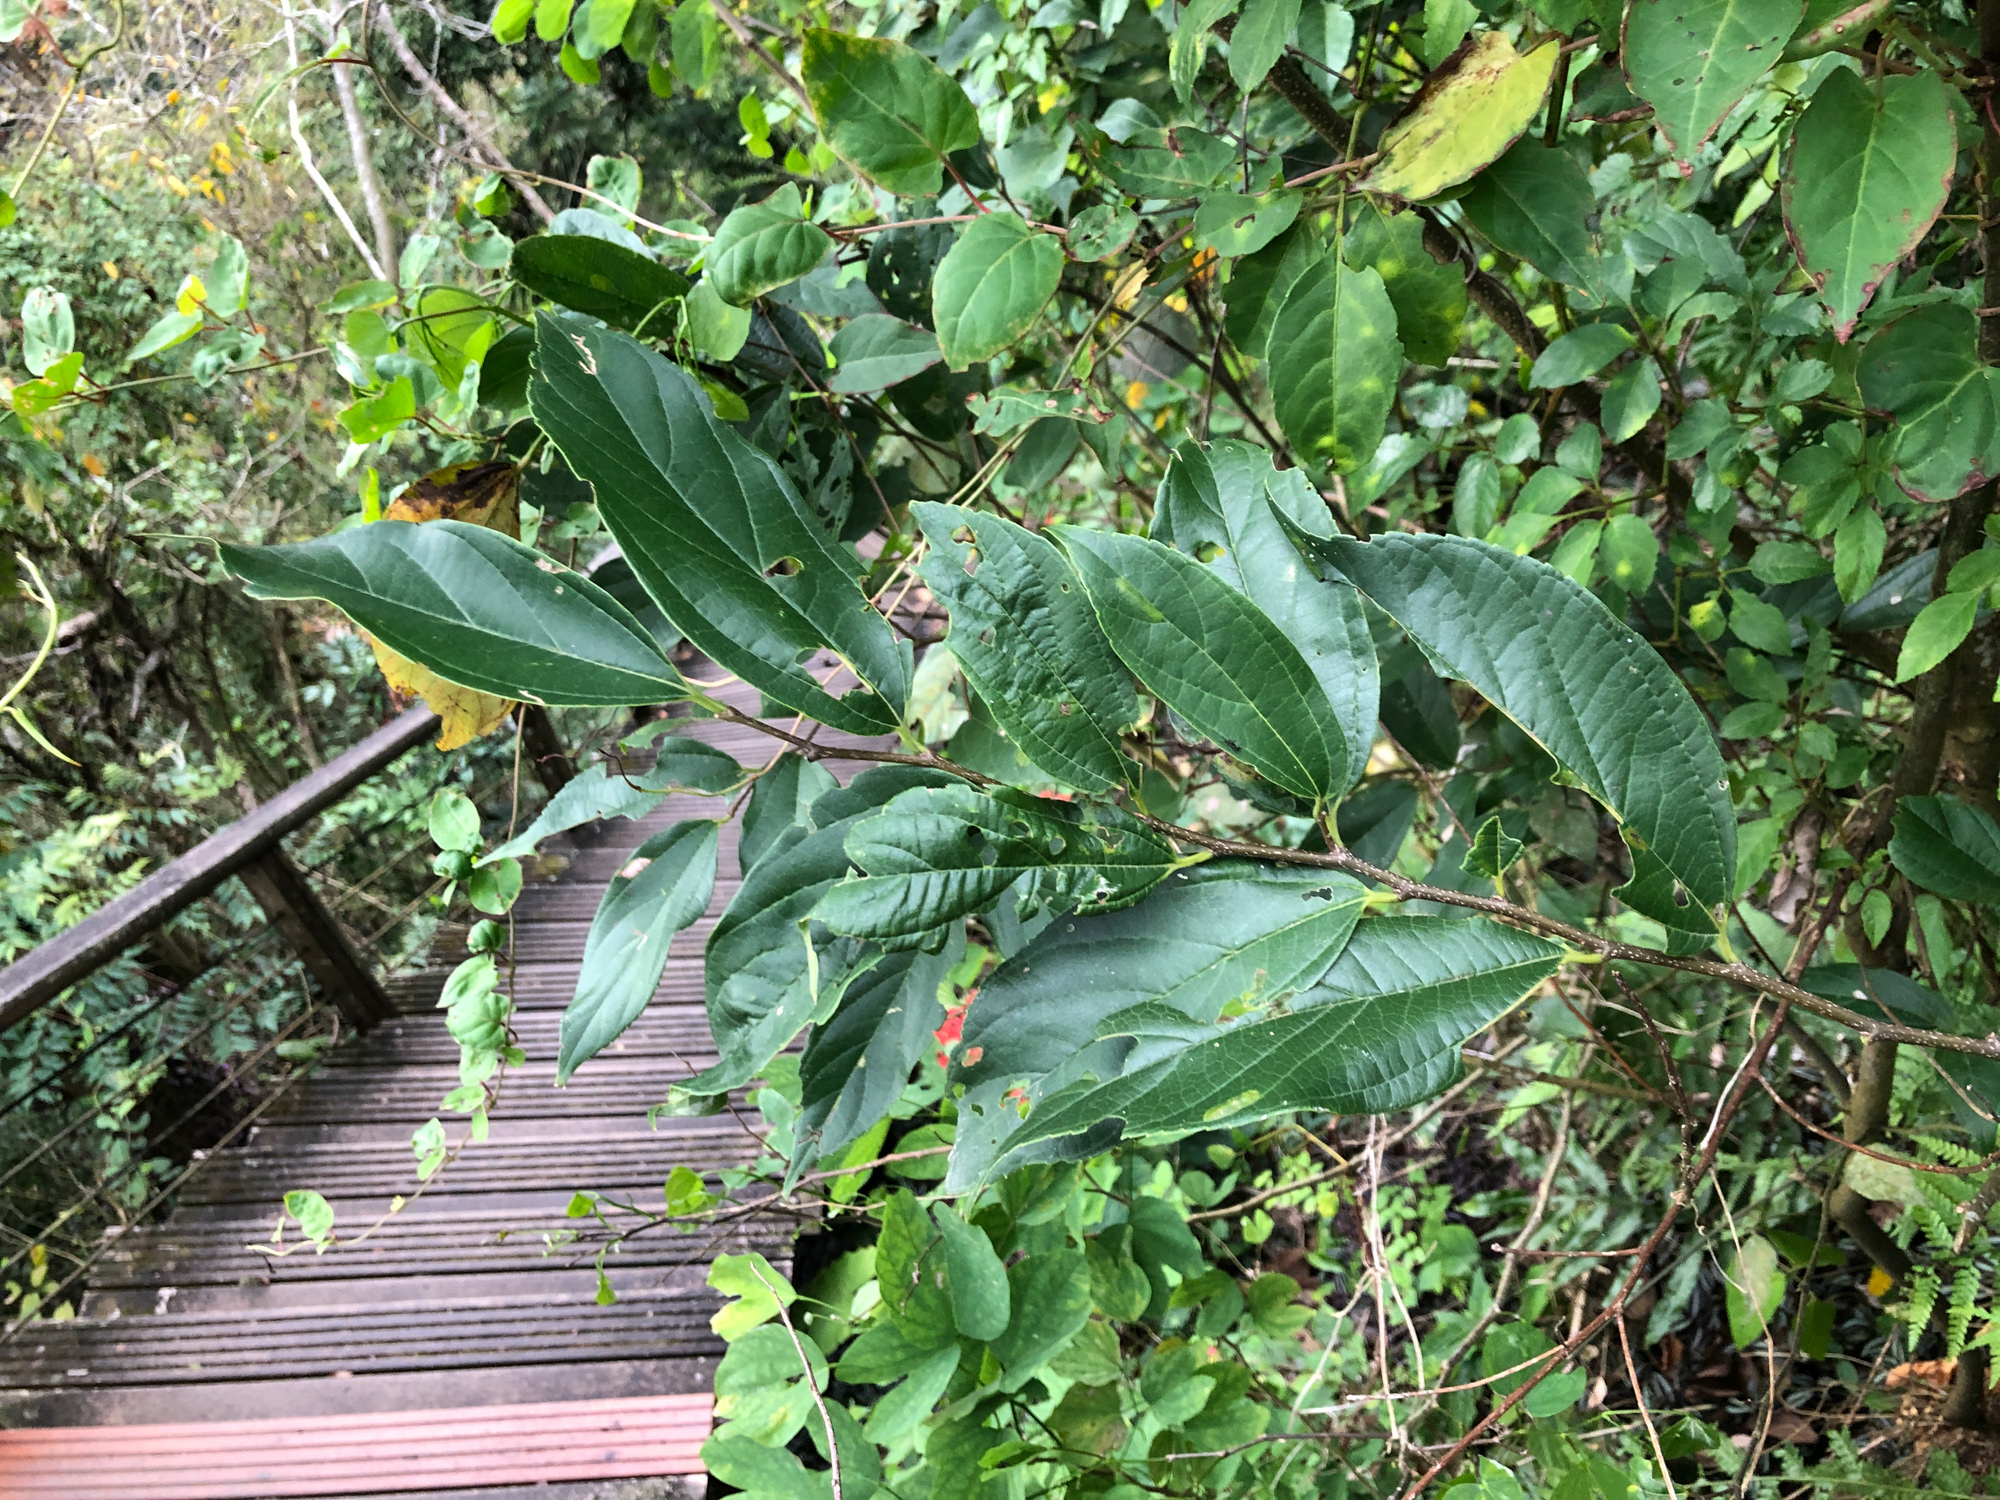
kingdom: Plantae
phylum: Tracheophyta
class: Magnoliopsida
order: Rosales
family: Cannabaceae
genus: Celtis
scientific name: Celtis tetrandra
